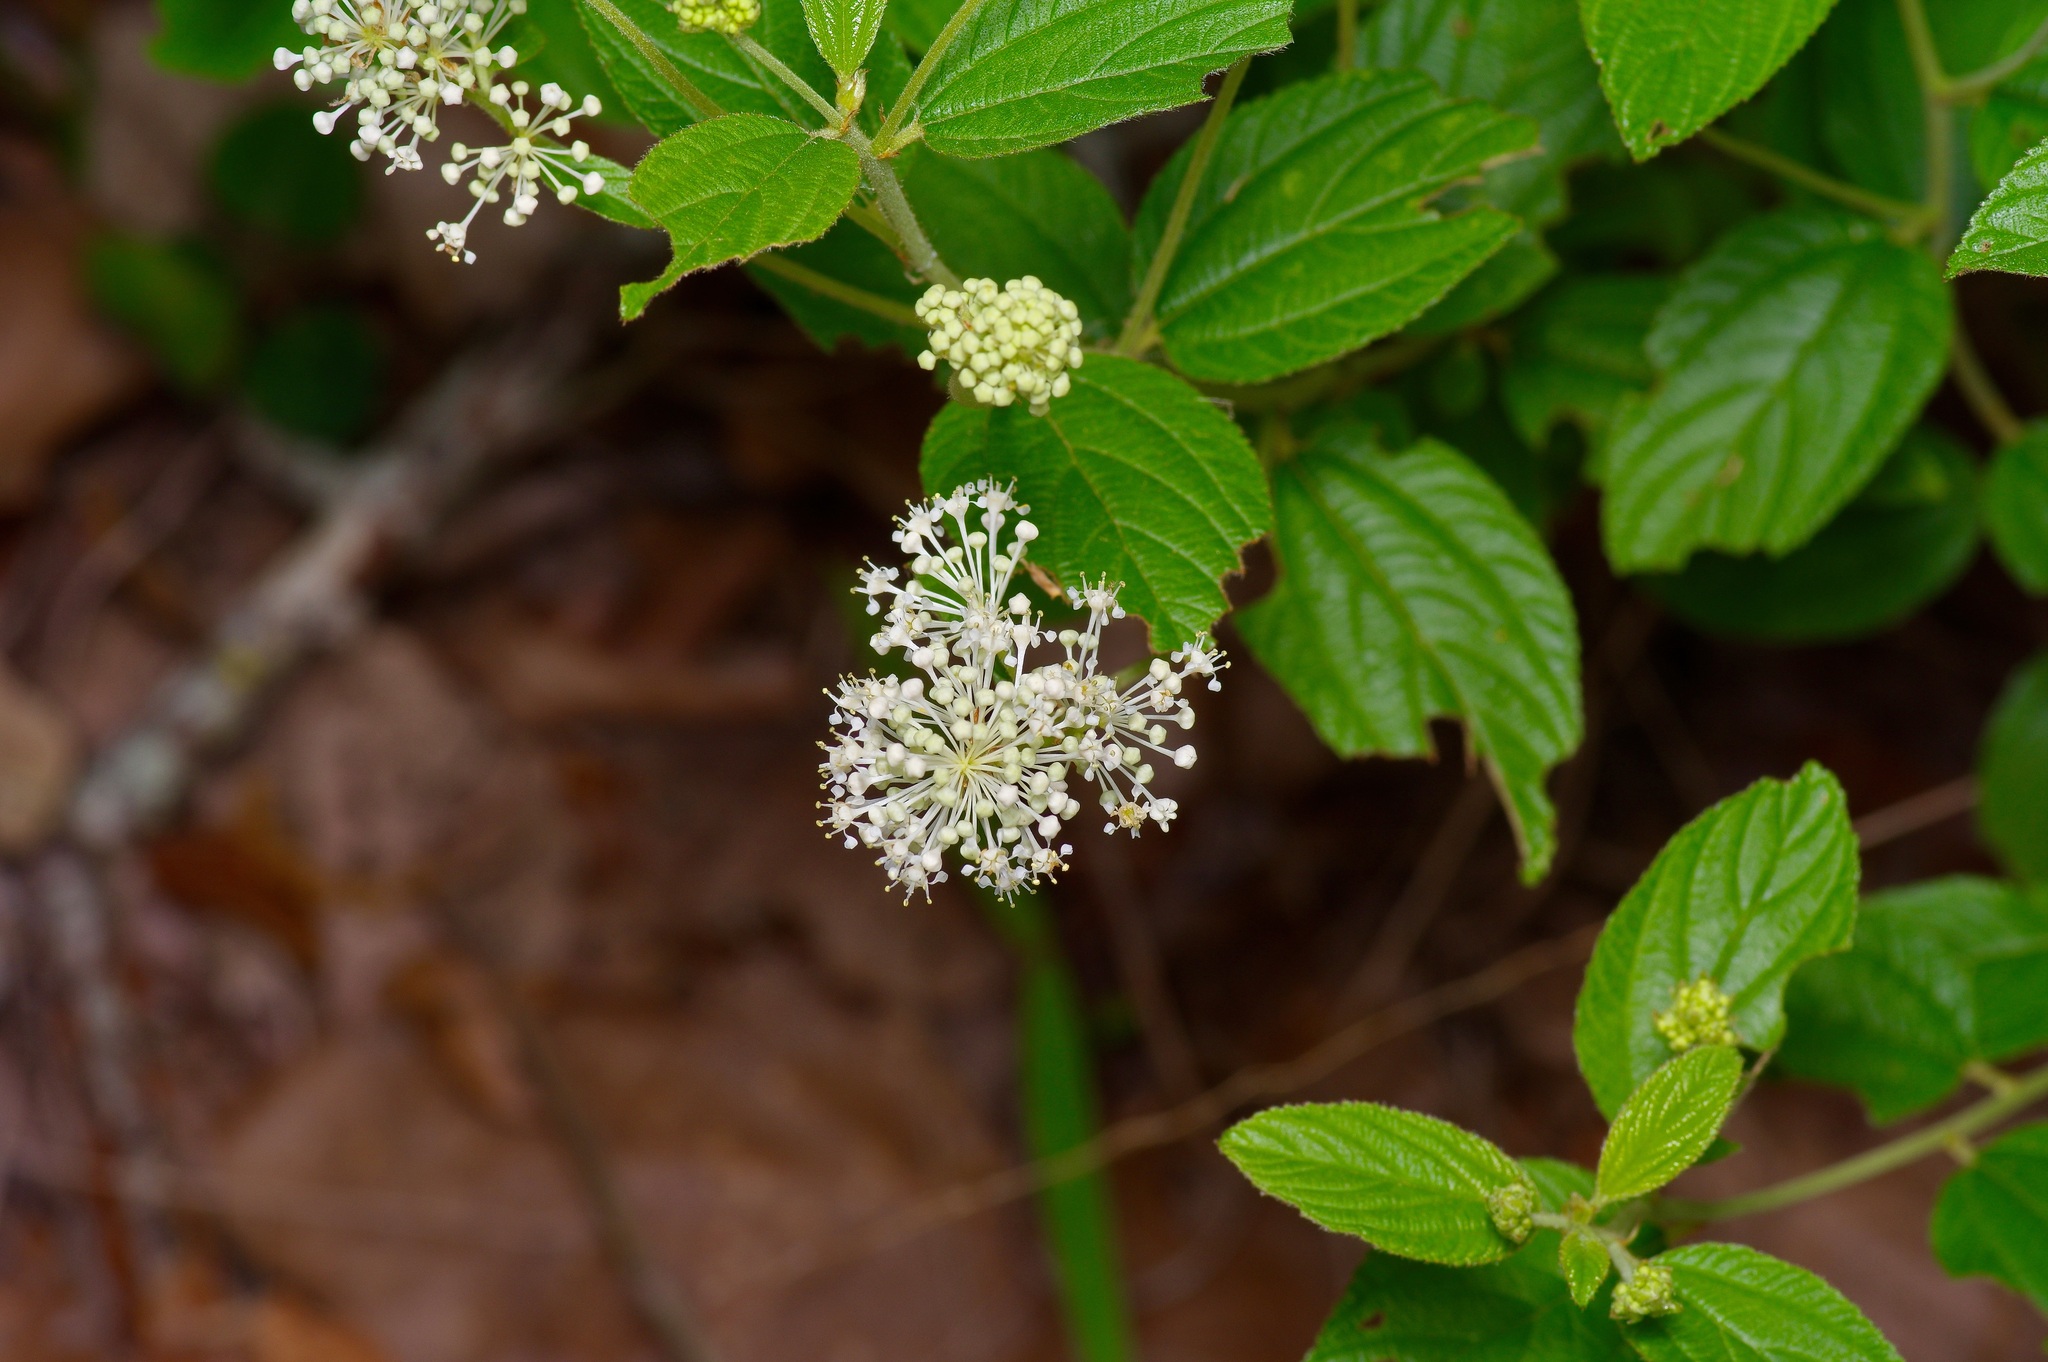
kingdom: Plantae
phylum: Tracheophyta
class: Magnoliopsida
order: Rosales
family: Rhamnaceae
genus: Ceanothus
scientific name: Ceanothus americanus
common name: Redroot
